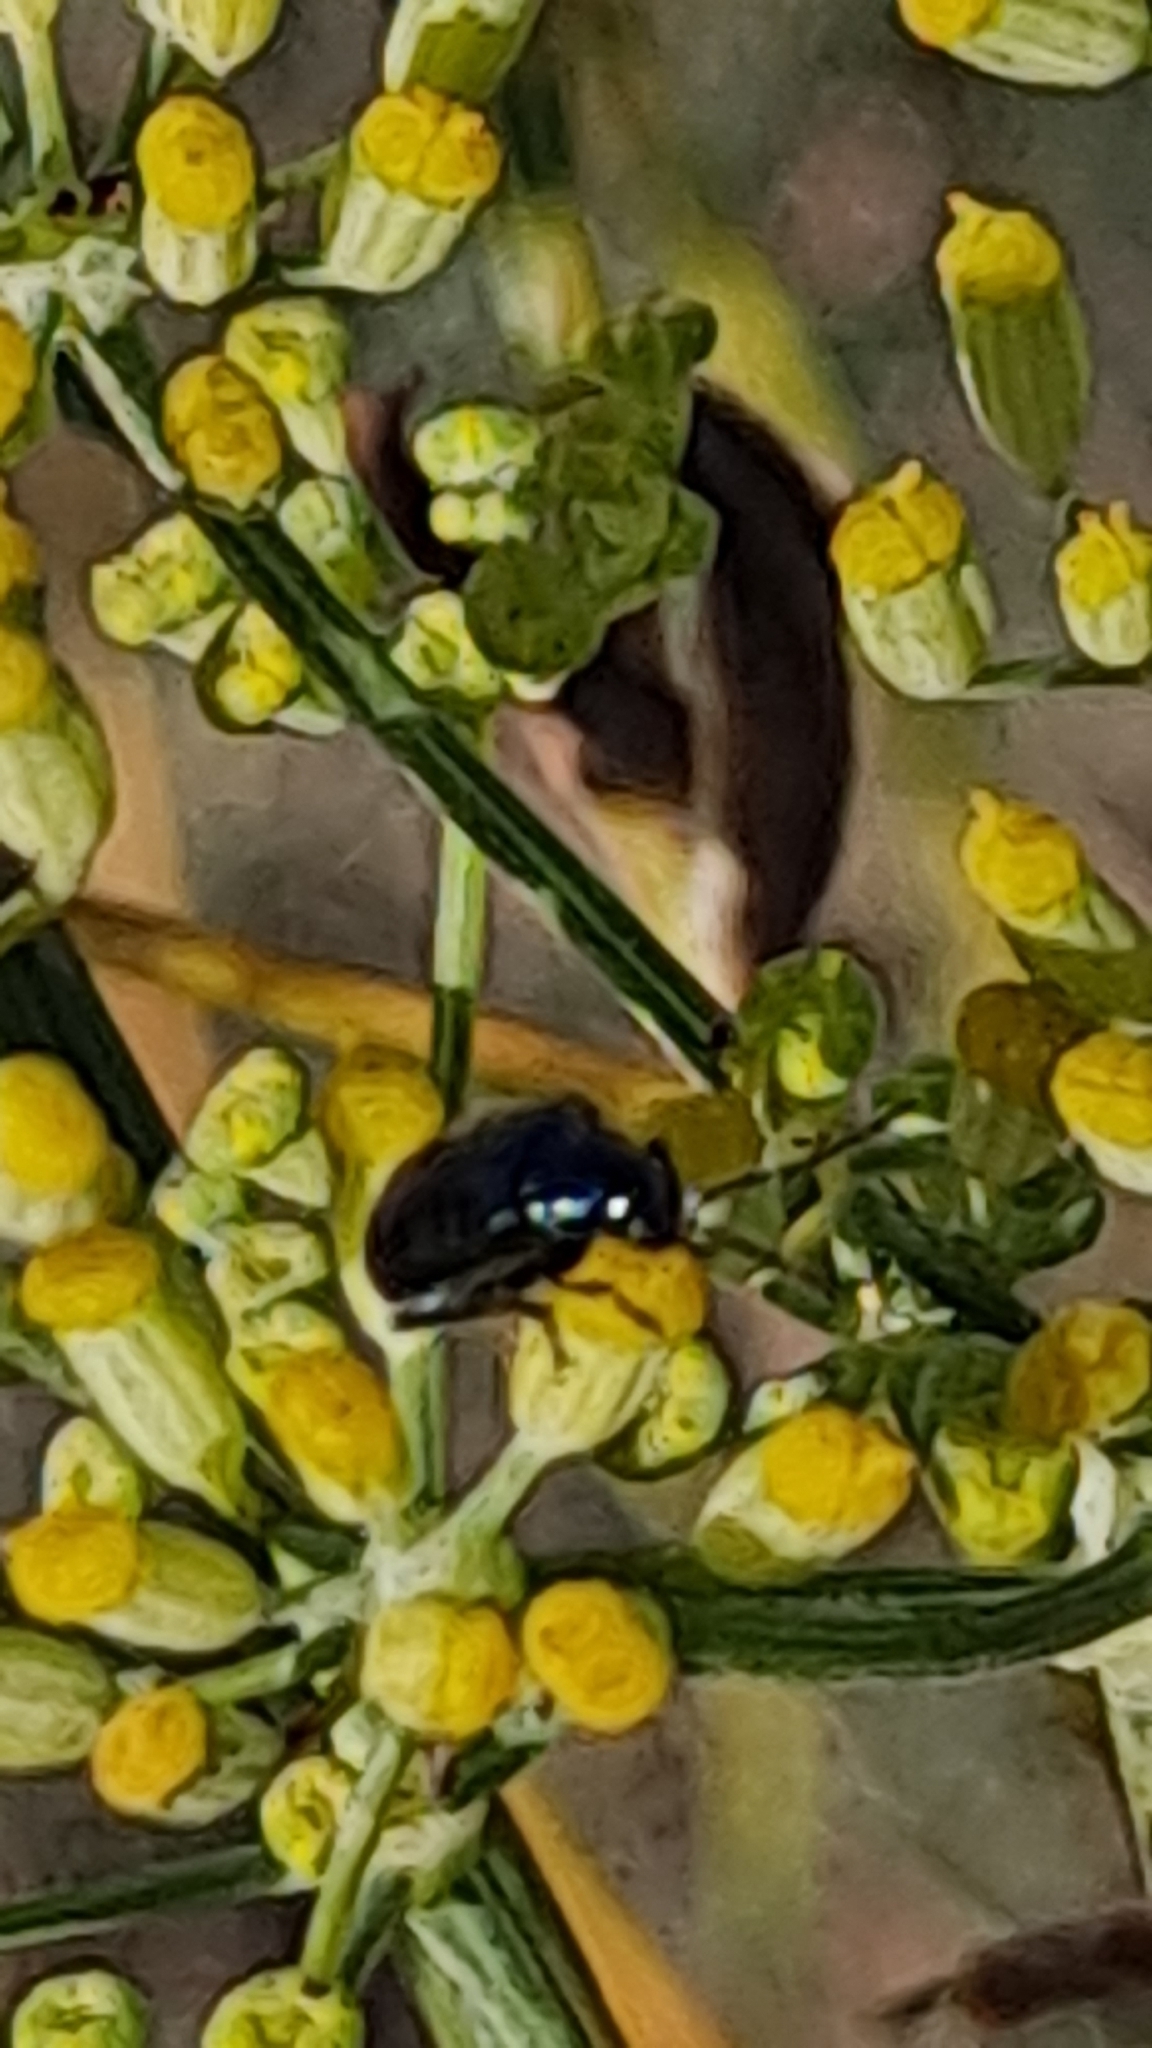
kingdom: Plantae
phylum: Tracheophyta
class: Magnoliopsida
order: Apiales
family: Apiaceae
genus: Foeniculum
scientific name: Foeniculum vulgare
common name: Fennel
